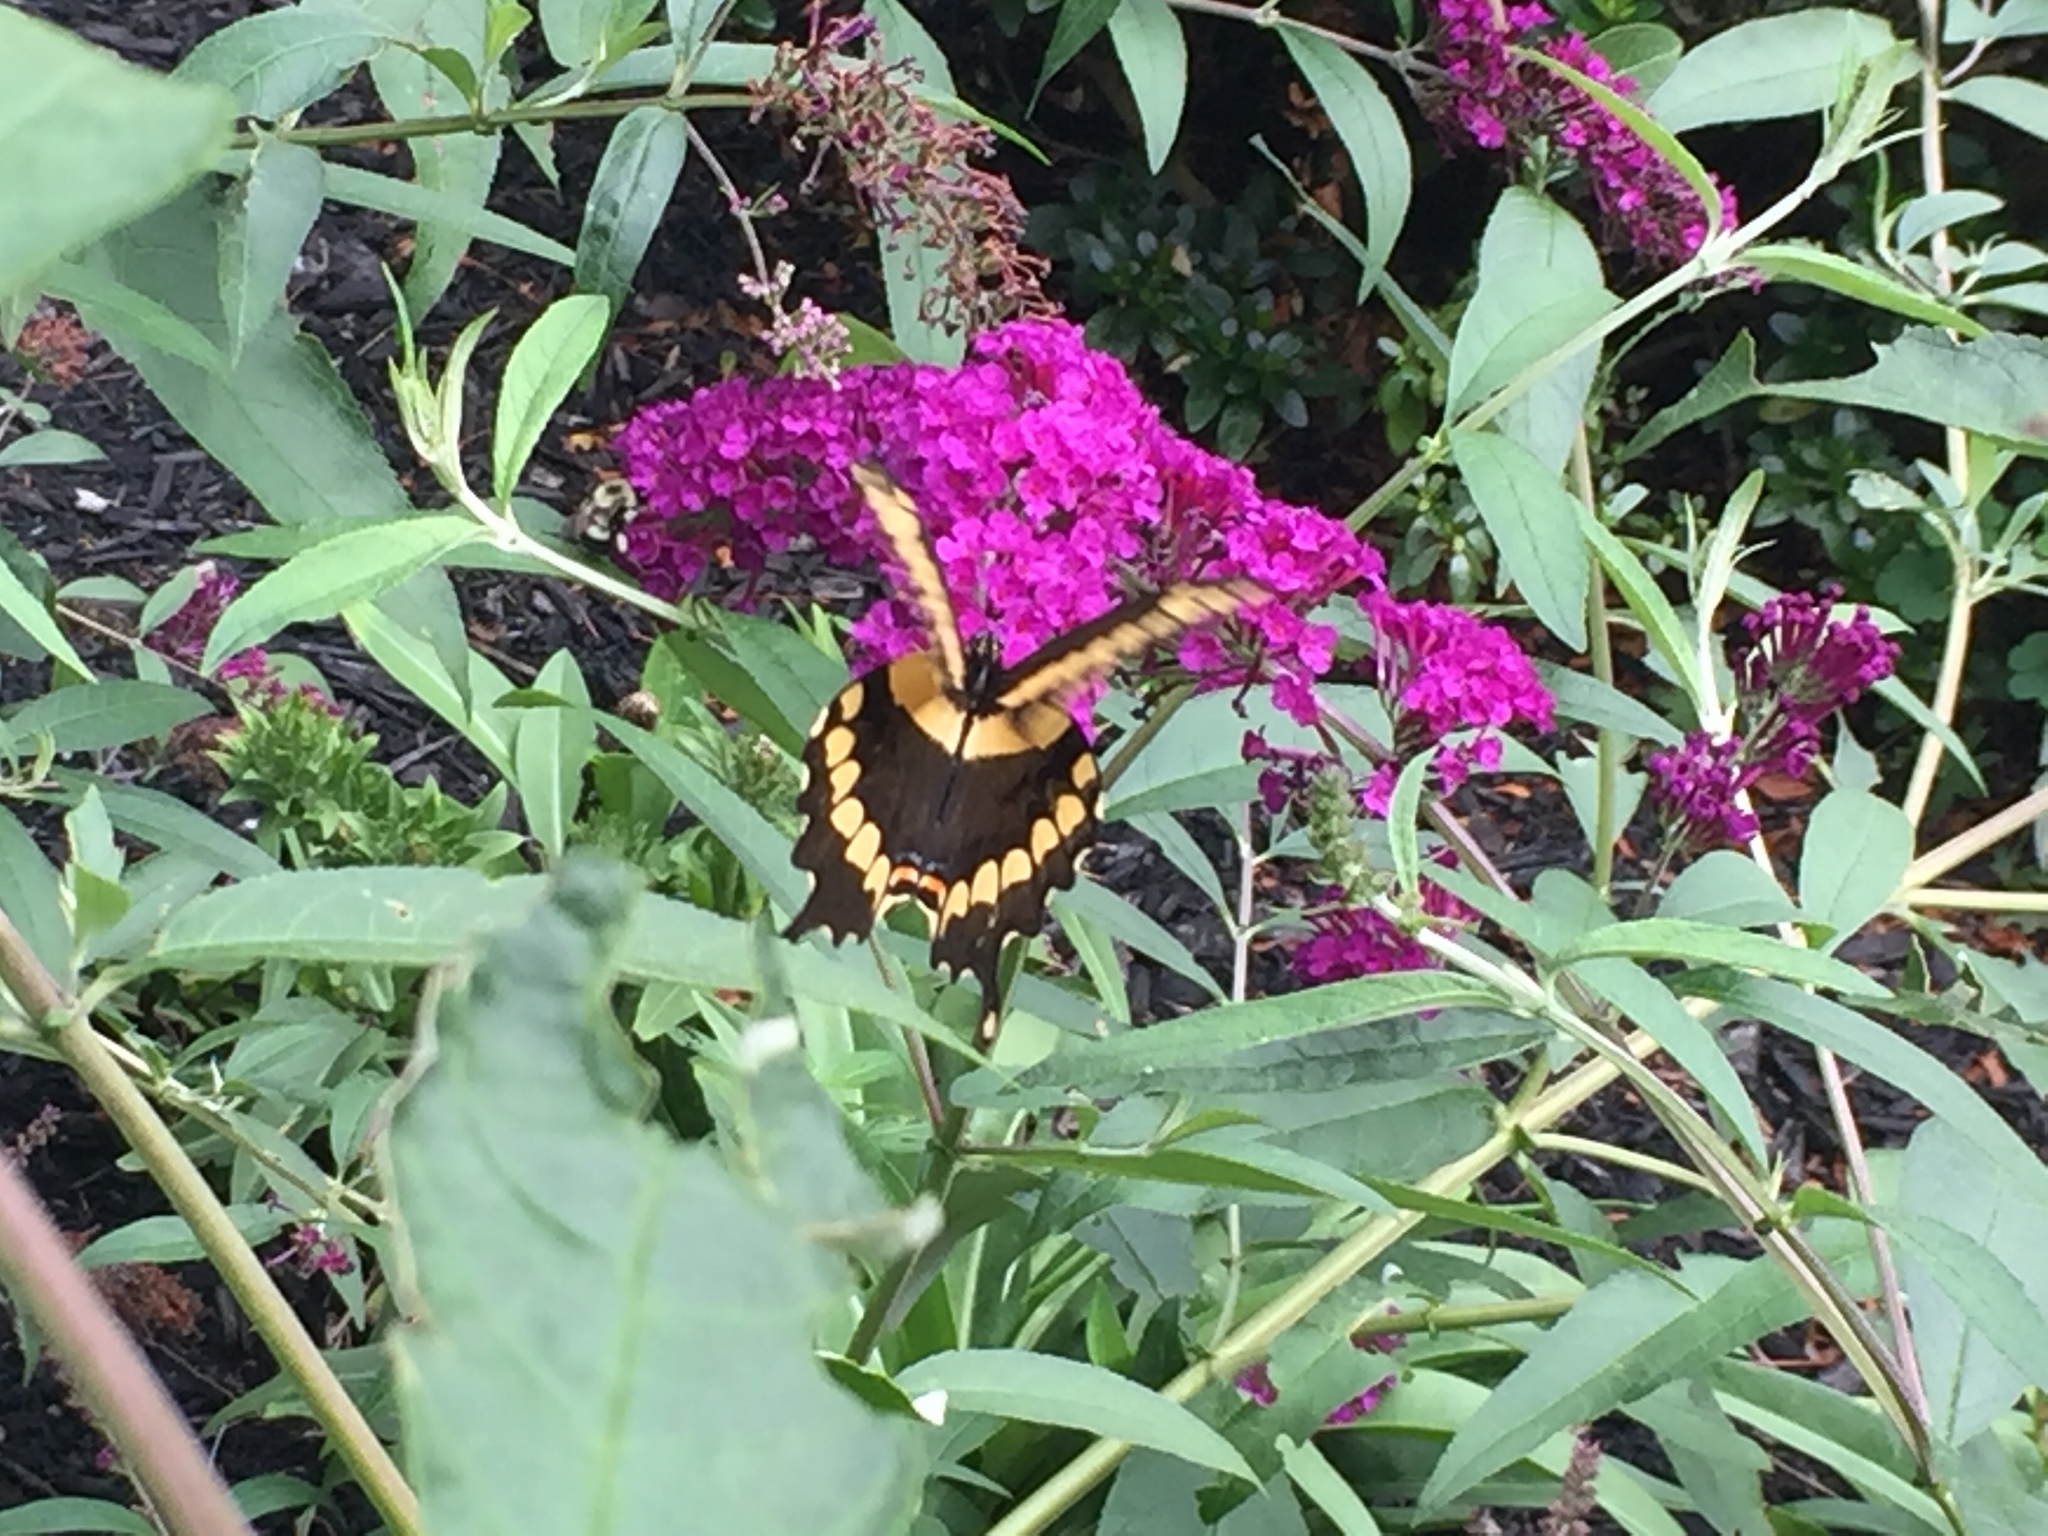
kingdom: Animalia
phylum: Arthropoda
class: Insecta
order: Lepidoptera
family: Papilionidae
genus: Papilio
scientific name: Papilio cresphontes
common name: Giant swallowtail
